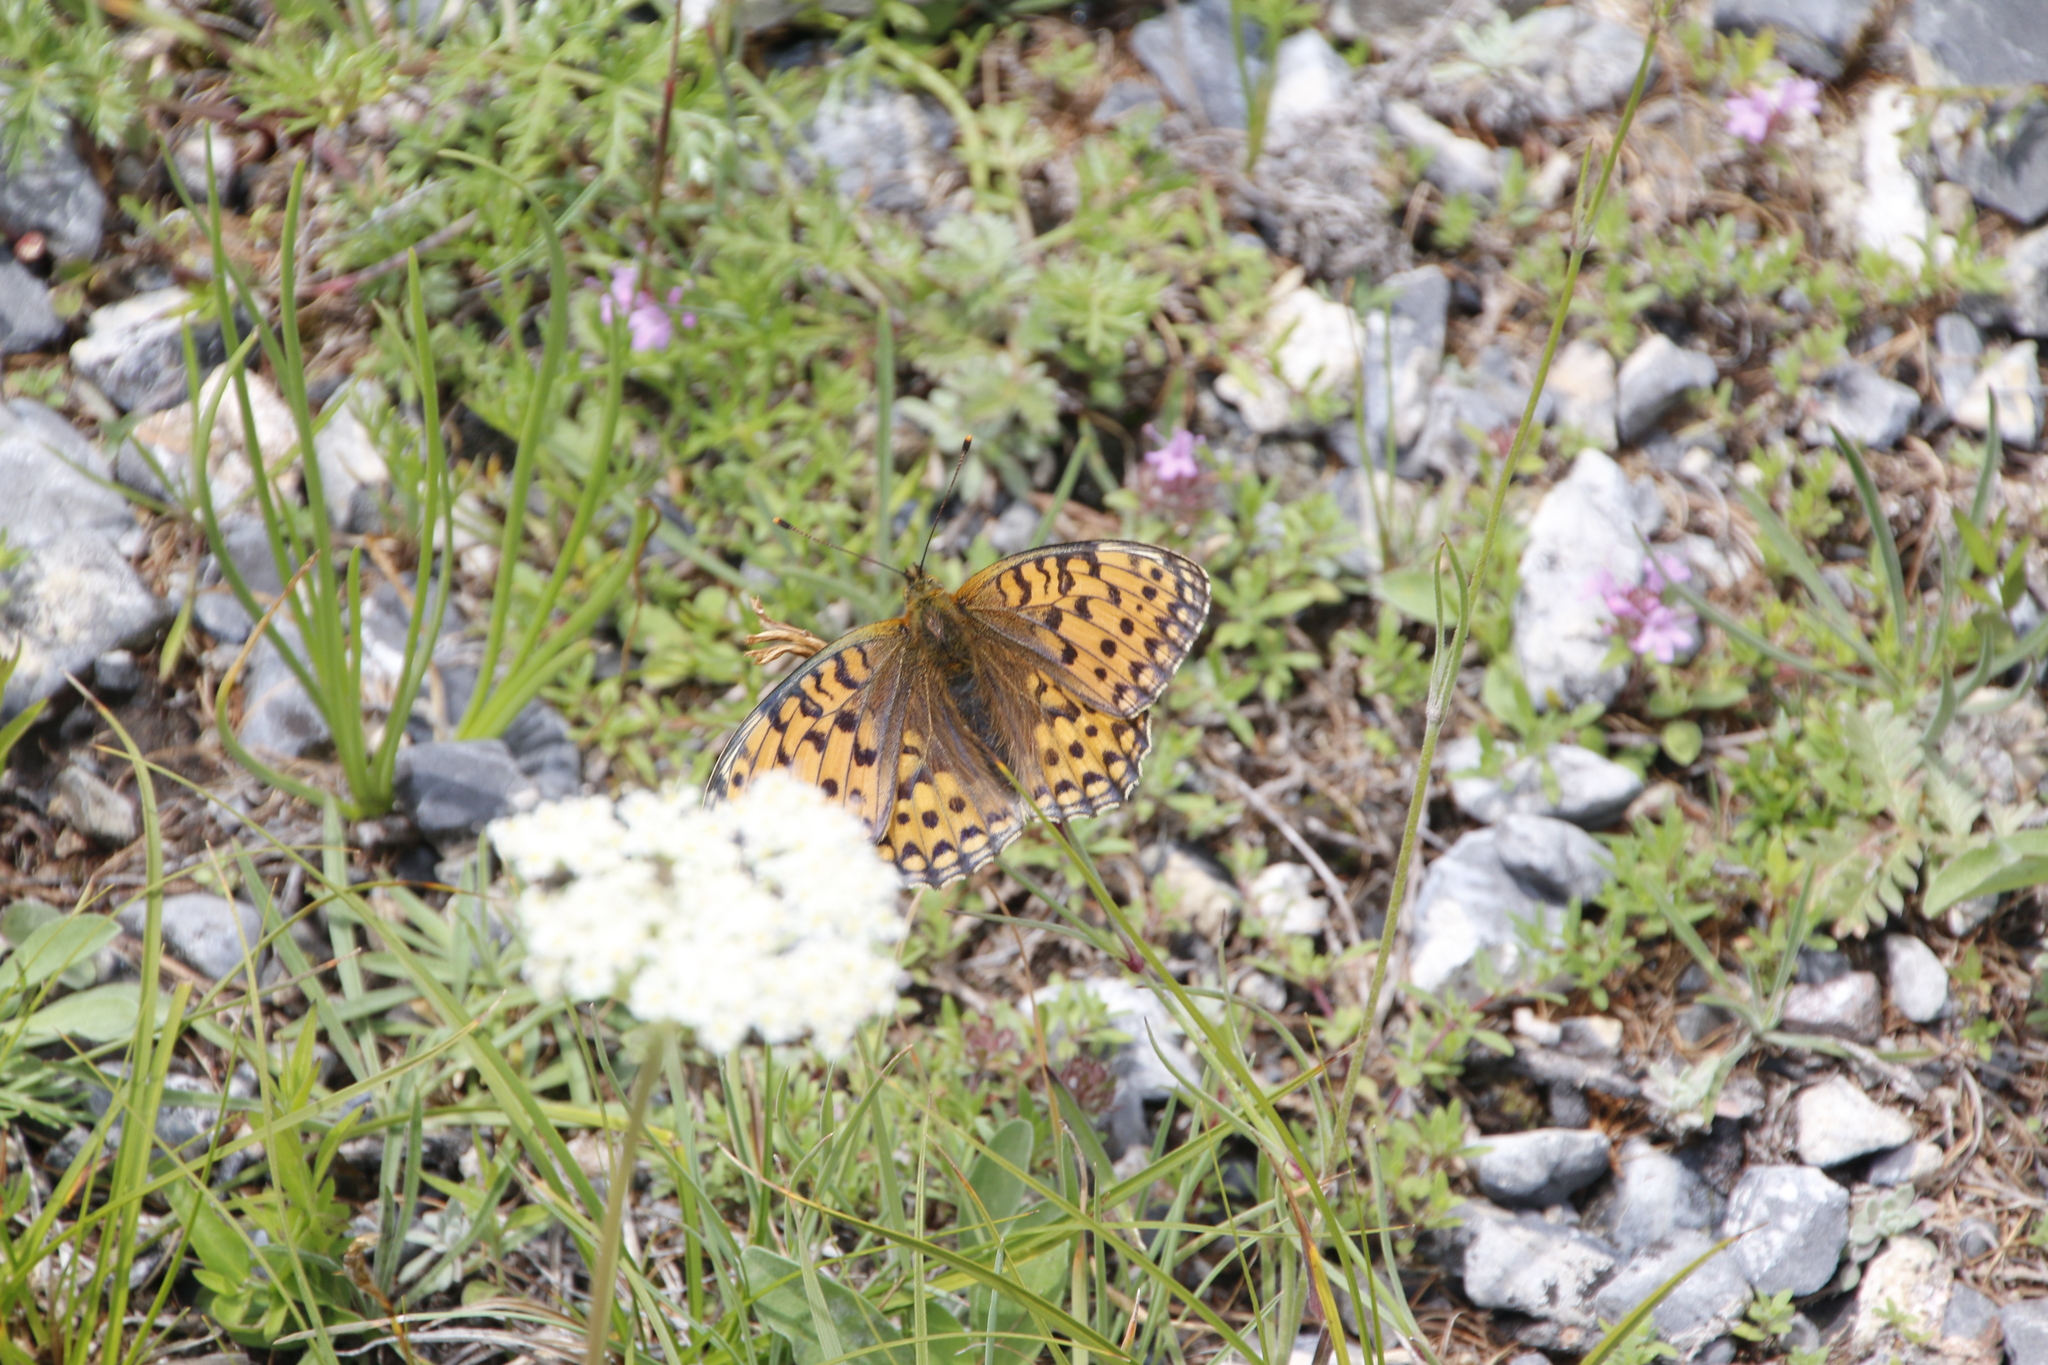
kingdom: Animalia
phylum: Arthropoda
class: Insecta
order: Lepidoptera
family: Nymphalidae
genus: Speyeria
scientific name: Speyeria aglaja
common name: Dark green fritillary
